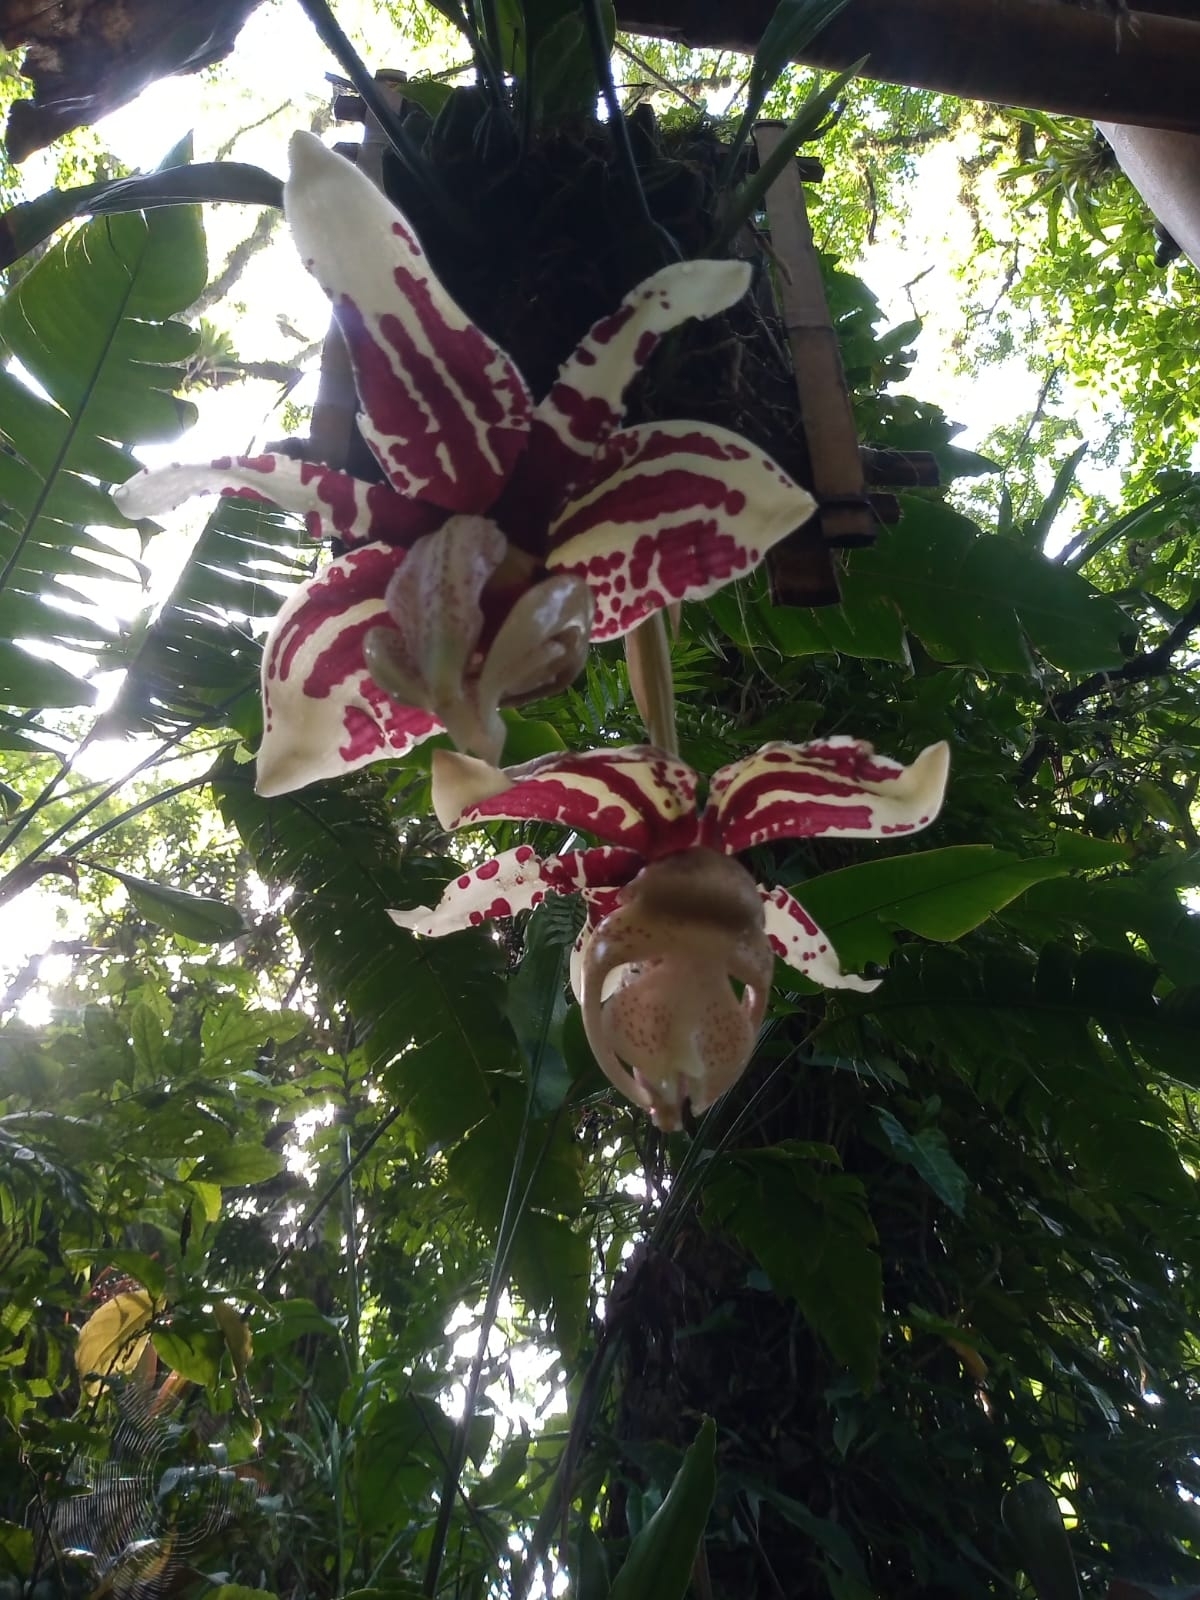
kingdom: Plantae
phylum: Tracheophyta
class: Liliopsida
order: Asparagales
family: Orchidaceae
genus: Stanhopea
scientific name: Stanhopea tigrina
